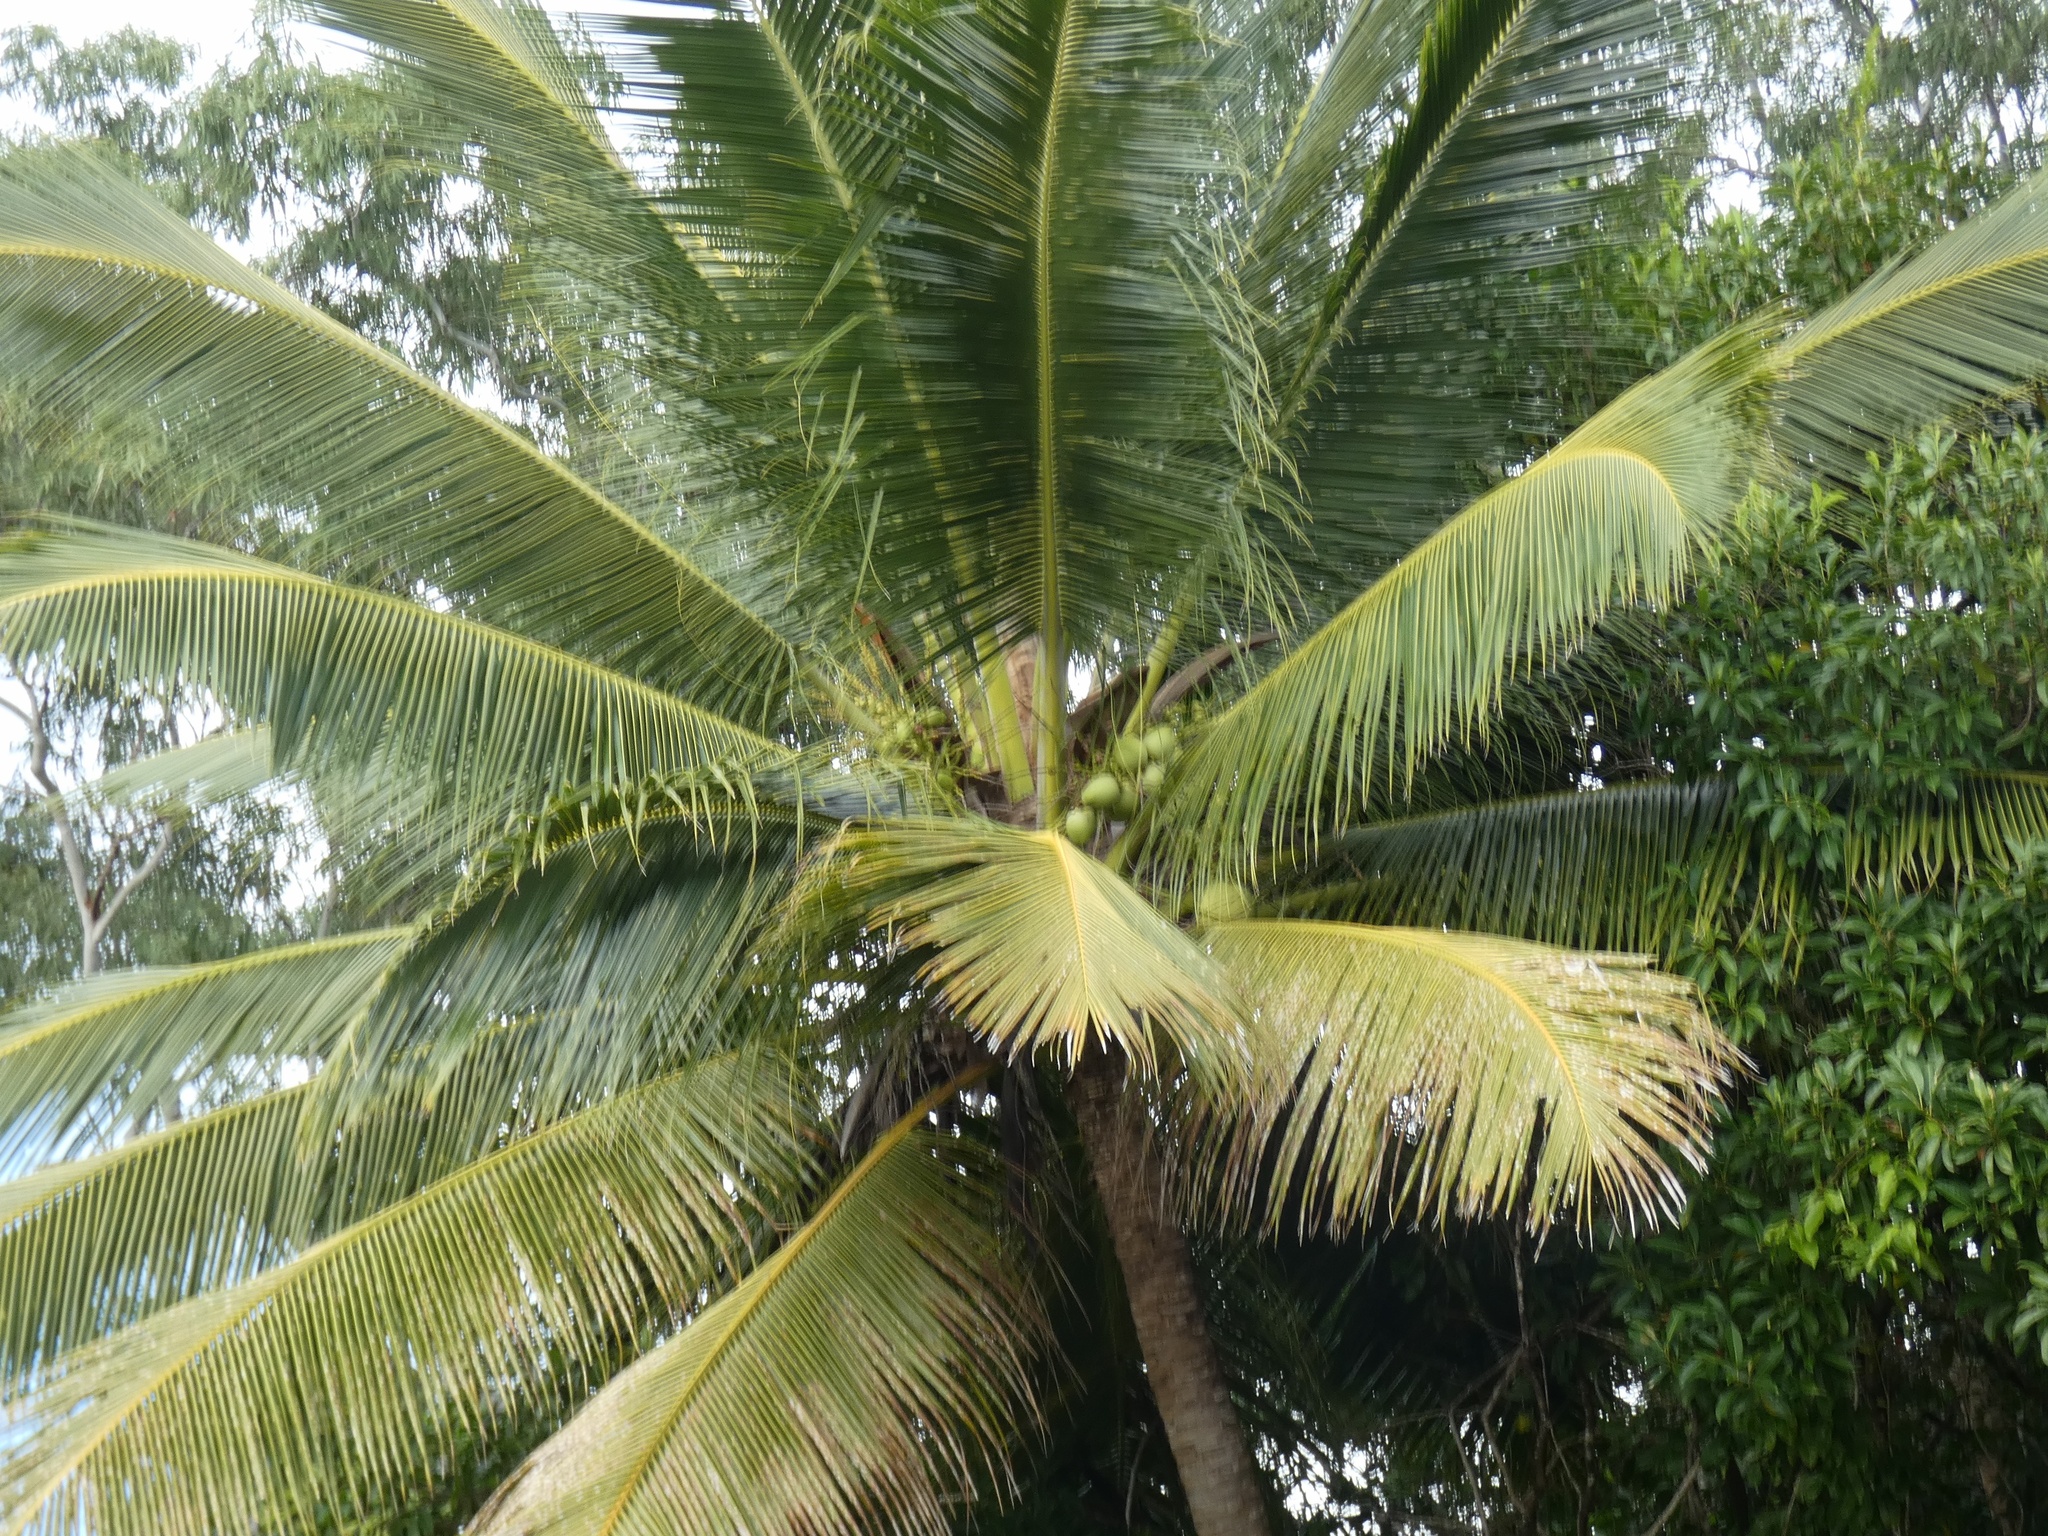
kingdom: Plantae
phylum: Tracheophyta
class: Liliopsida
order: Arecales
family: Arecaceae
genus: Cocos
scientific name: Cocos nucifera
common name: Coconut palm
